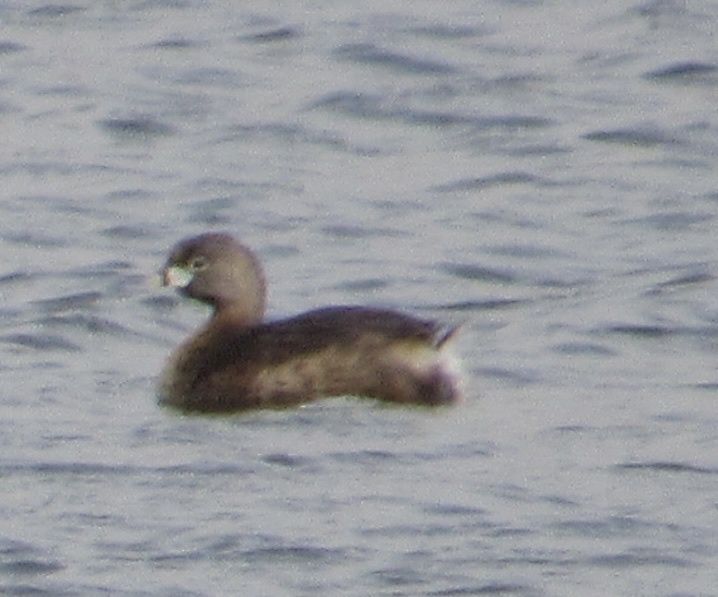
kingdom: Animalia
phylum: Chordata
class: Aves
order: Podicipediformes
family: Podicipedidae
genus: Podilymbus
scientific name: Podilymbus podiceps
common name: Pied-billed grebe
